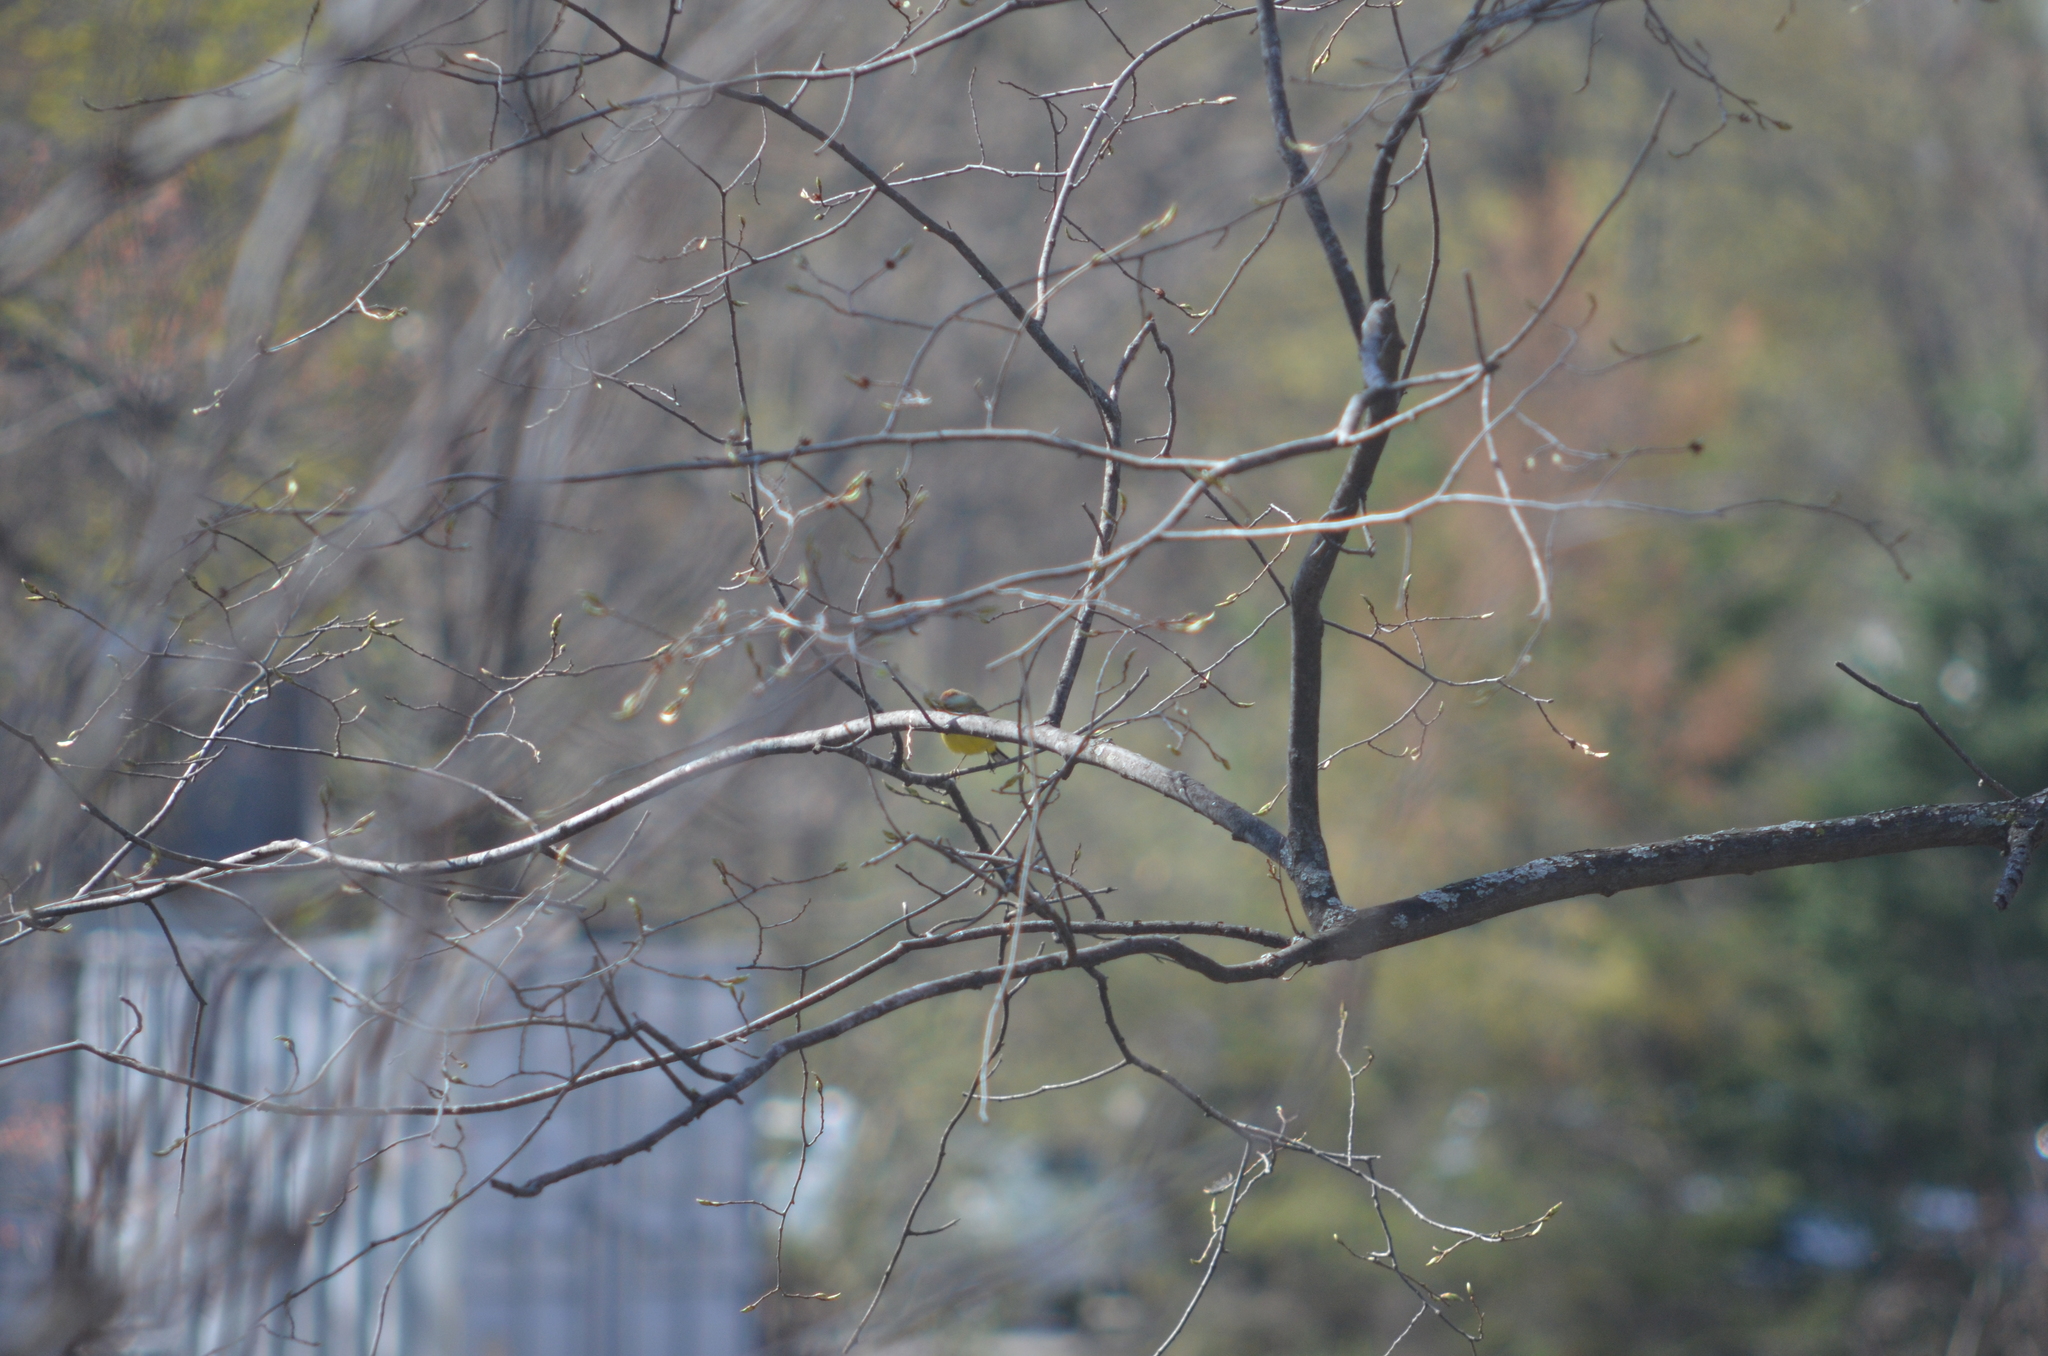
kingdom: Animalia
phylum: Chordata
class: Aves
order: Passeriformes
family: Parulidae
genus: Setophaga
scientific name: Setophaga palmarum
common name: Palm warbler
